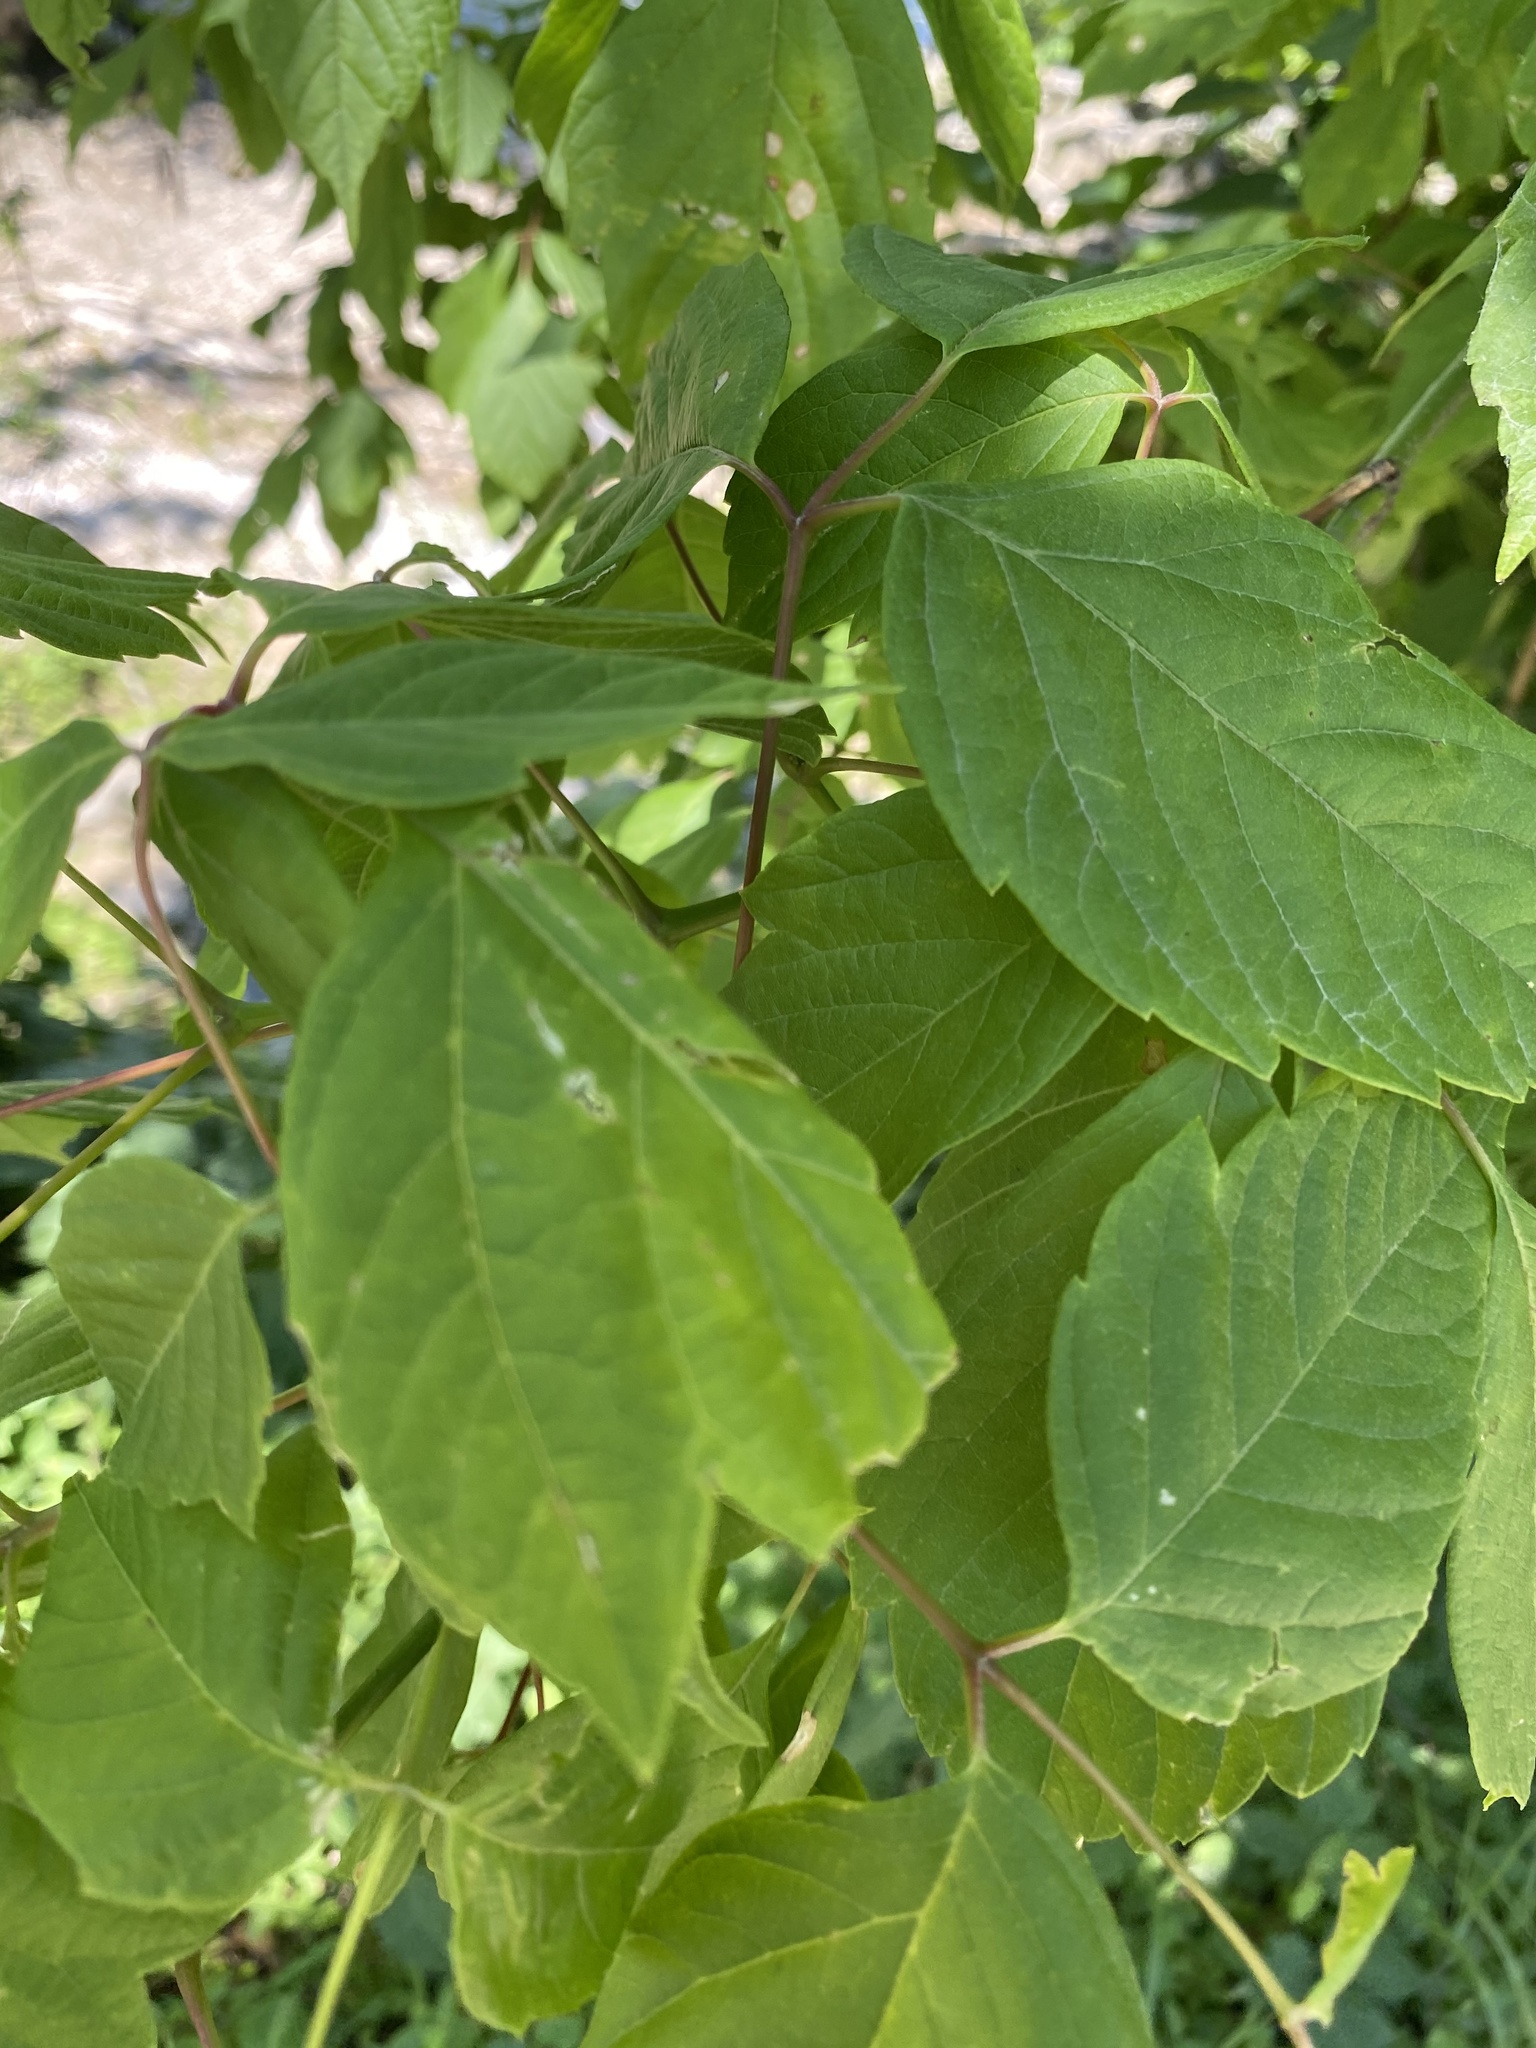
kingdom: Plantae
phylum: Tracheophyta
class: Magnoliopsida
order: Sapindales
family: Sapindaceae
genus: Acer
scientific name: Acer negundo
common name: Ashleaf maple
